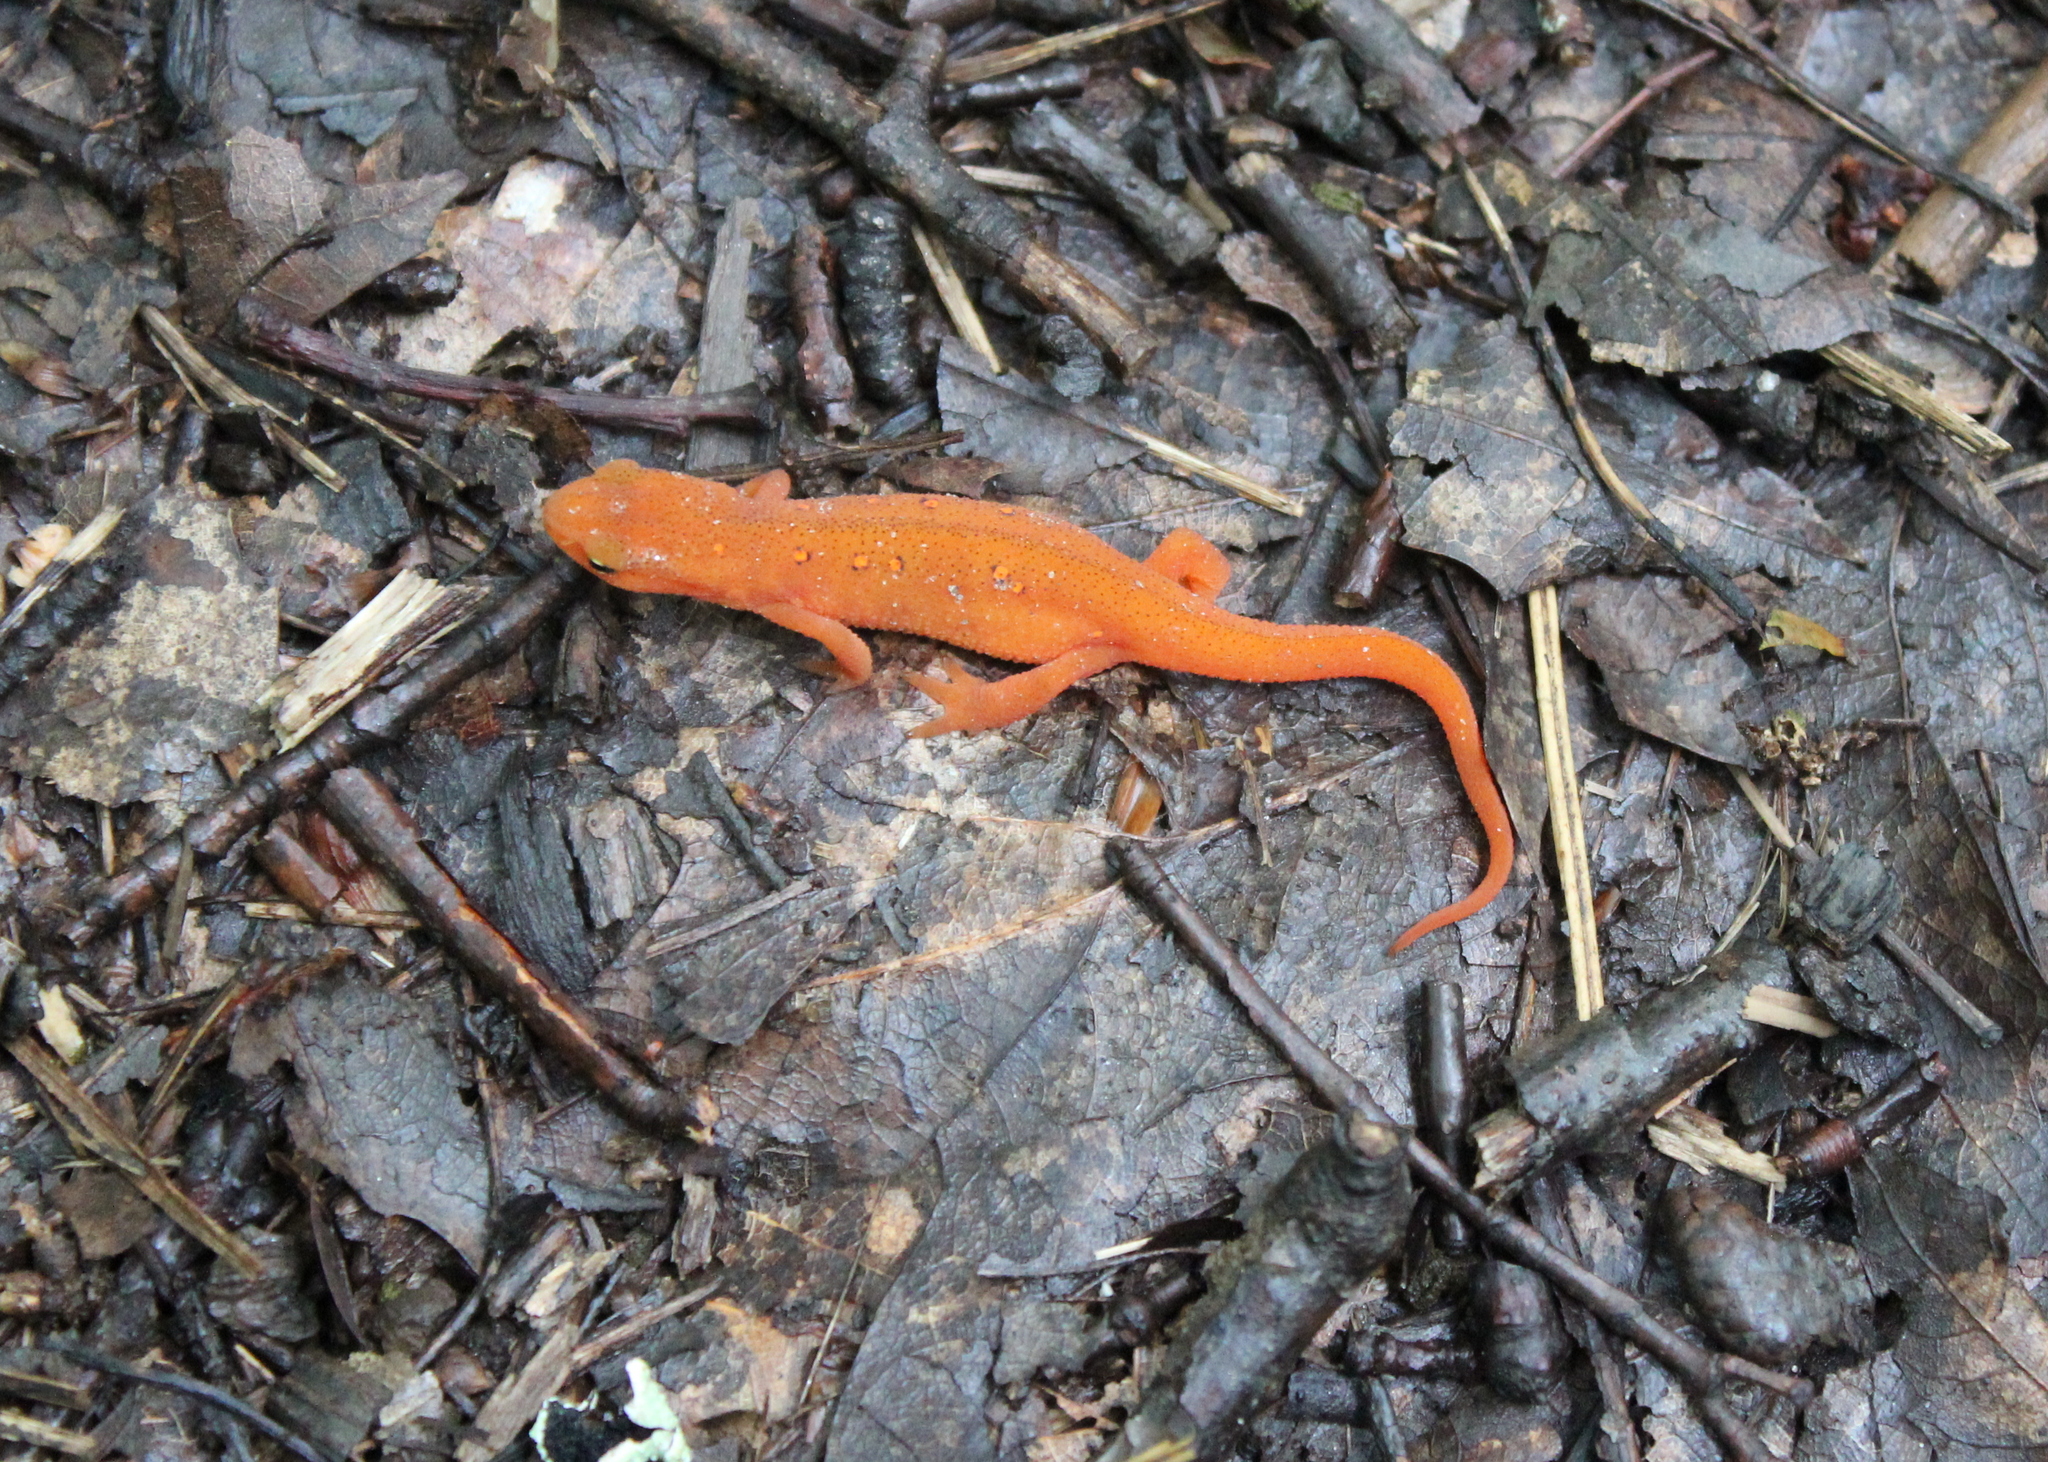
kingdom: Animalia
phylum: Chordata
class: Amphibia
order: Caudata
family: Salamandridae
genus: Notophthalmus
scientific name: Notophthalmus viridescens
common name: Eastern newt
